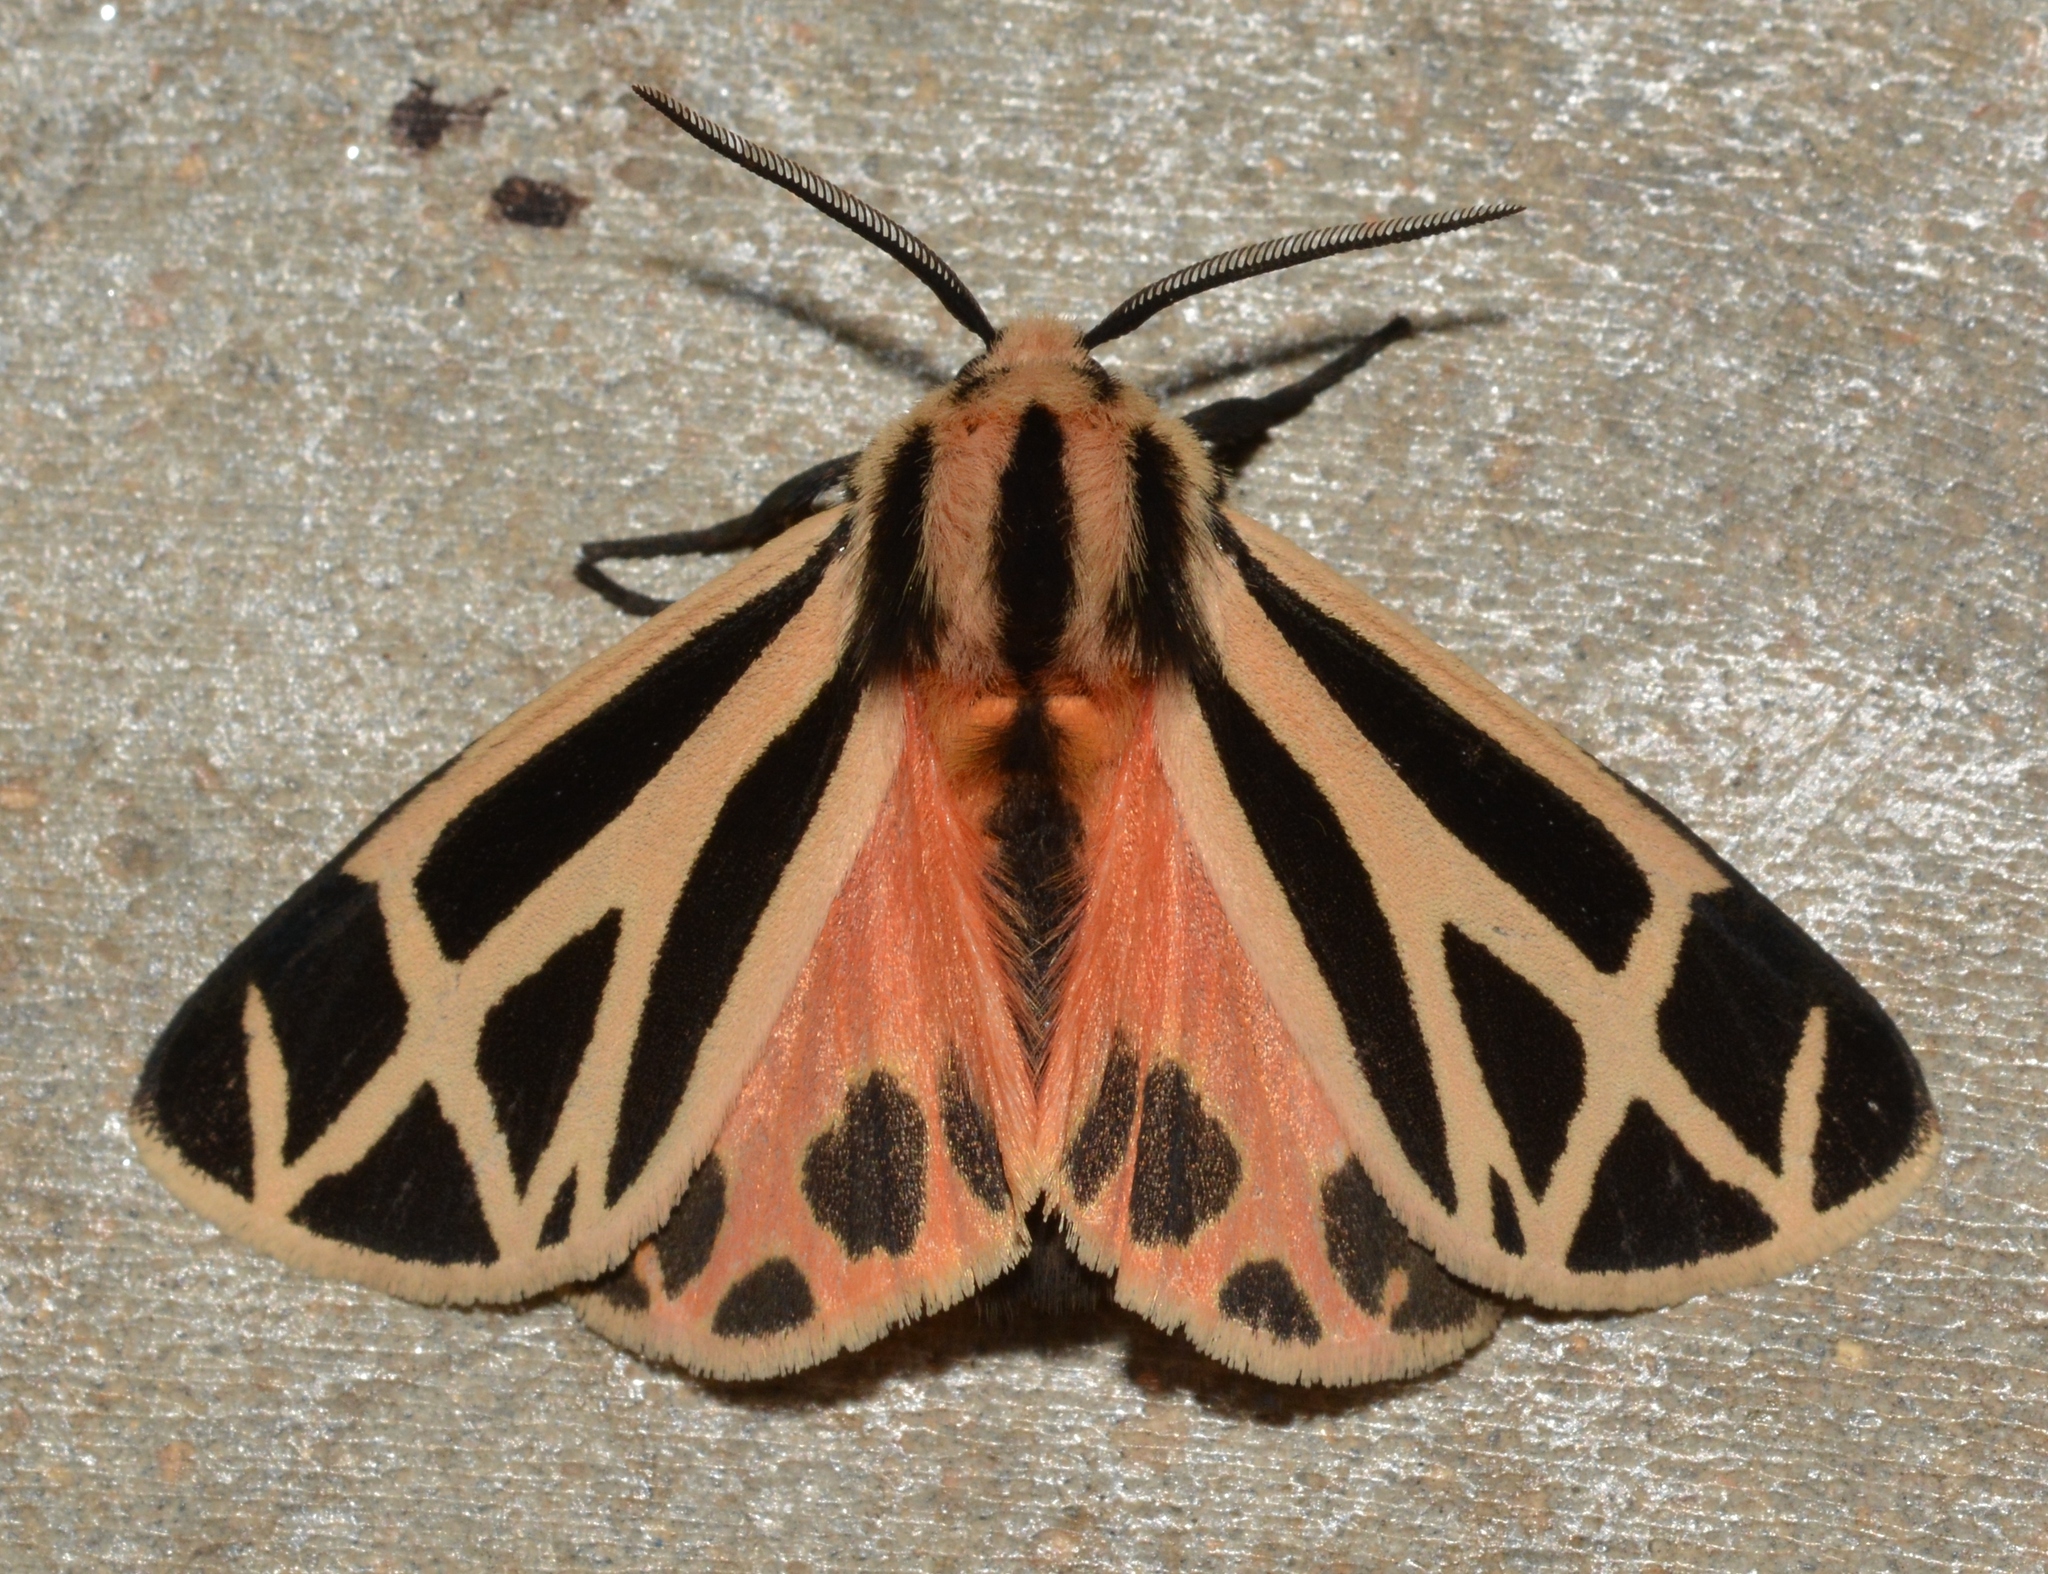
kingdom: Animalia
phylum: Arthropoda
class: Insecta
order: Lepidoptera
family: Erebidae
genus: Apantesis
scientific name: Apantesis phalerata
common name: Harnessed tiger moth
